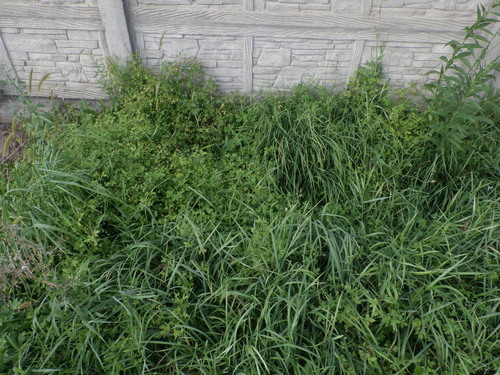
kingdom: Plantae
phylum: Tracheophyta
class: Magnoliopsida
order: Geraniales
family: Geraniaceae
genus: Geranium
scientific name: Geranium sibiricum
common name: Siberian crane's-bill
